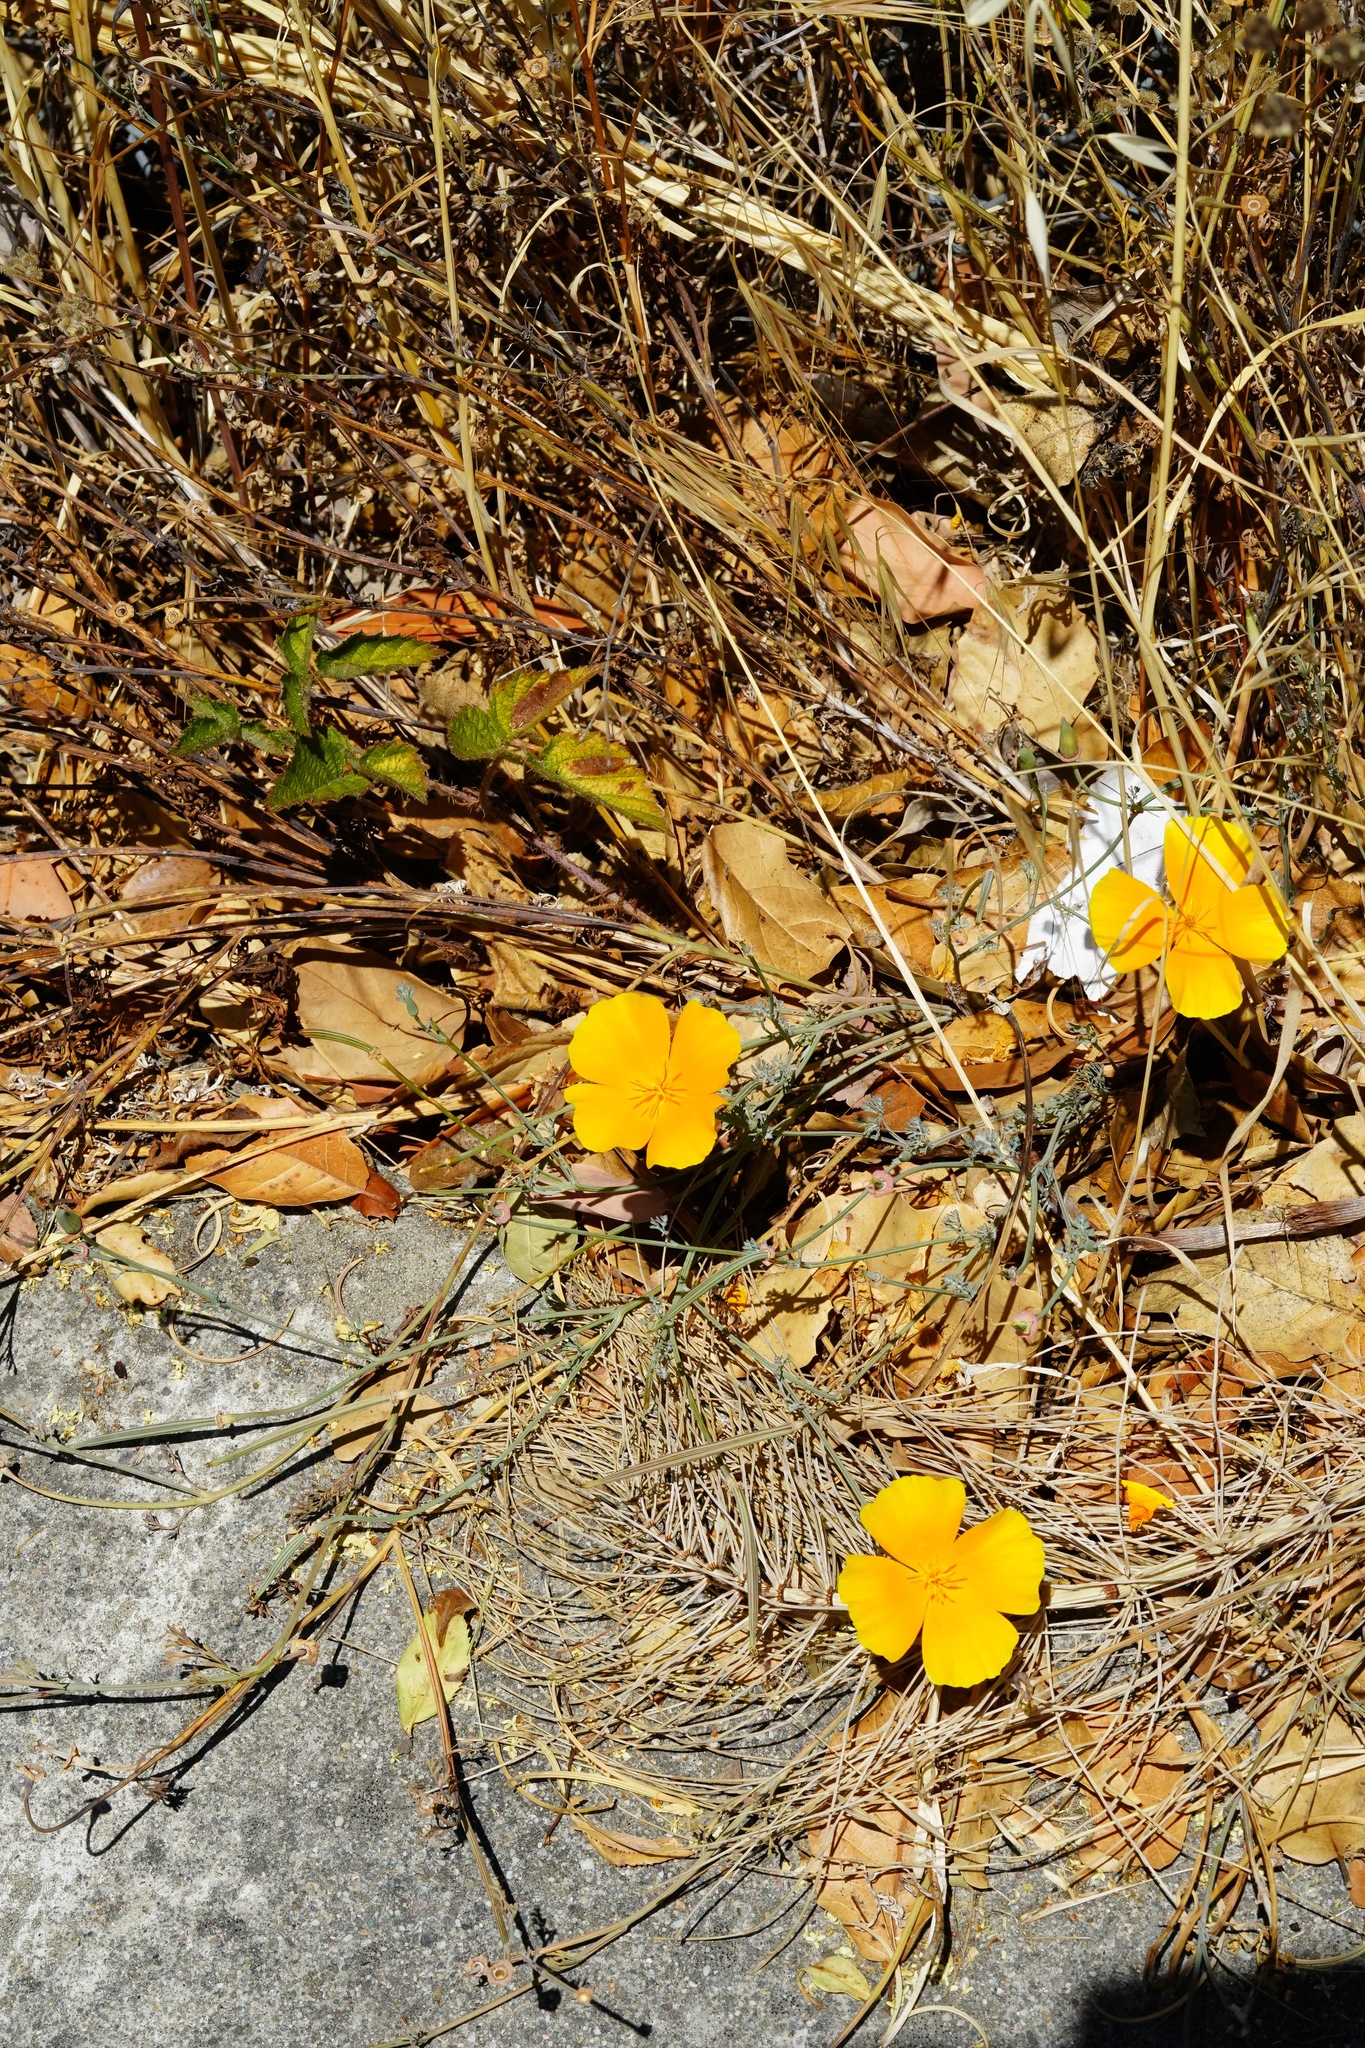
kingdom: Plantae
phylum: Tracheophyta
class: Magnoliopsida
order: Ranunculales
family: Papaveraceae
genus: Eschscholzia
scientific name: Eschscholzia californica
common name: California poppy
